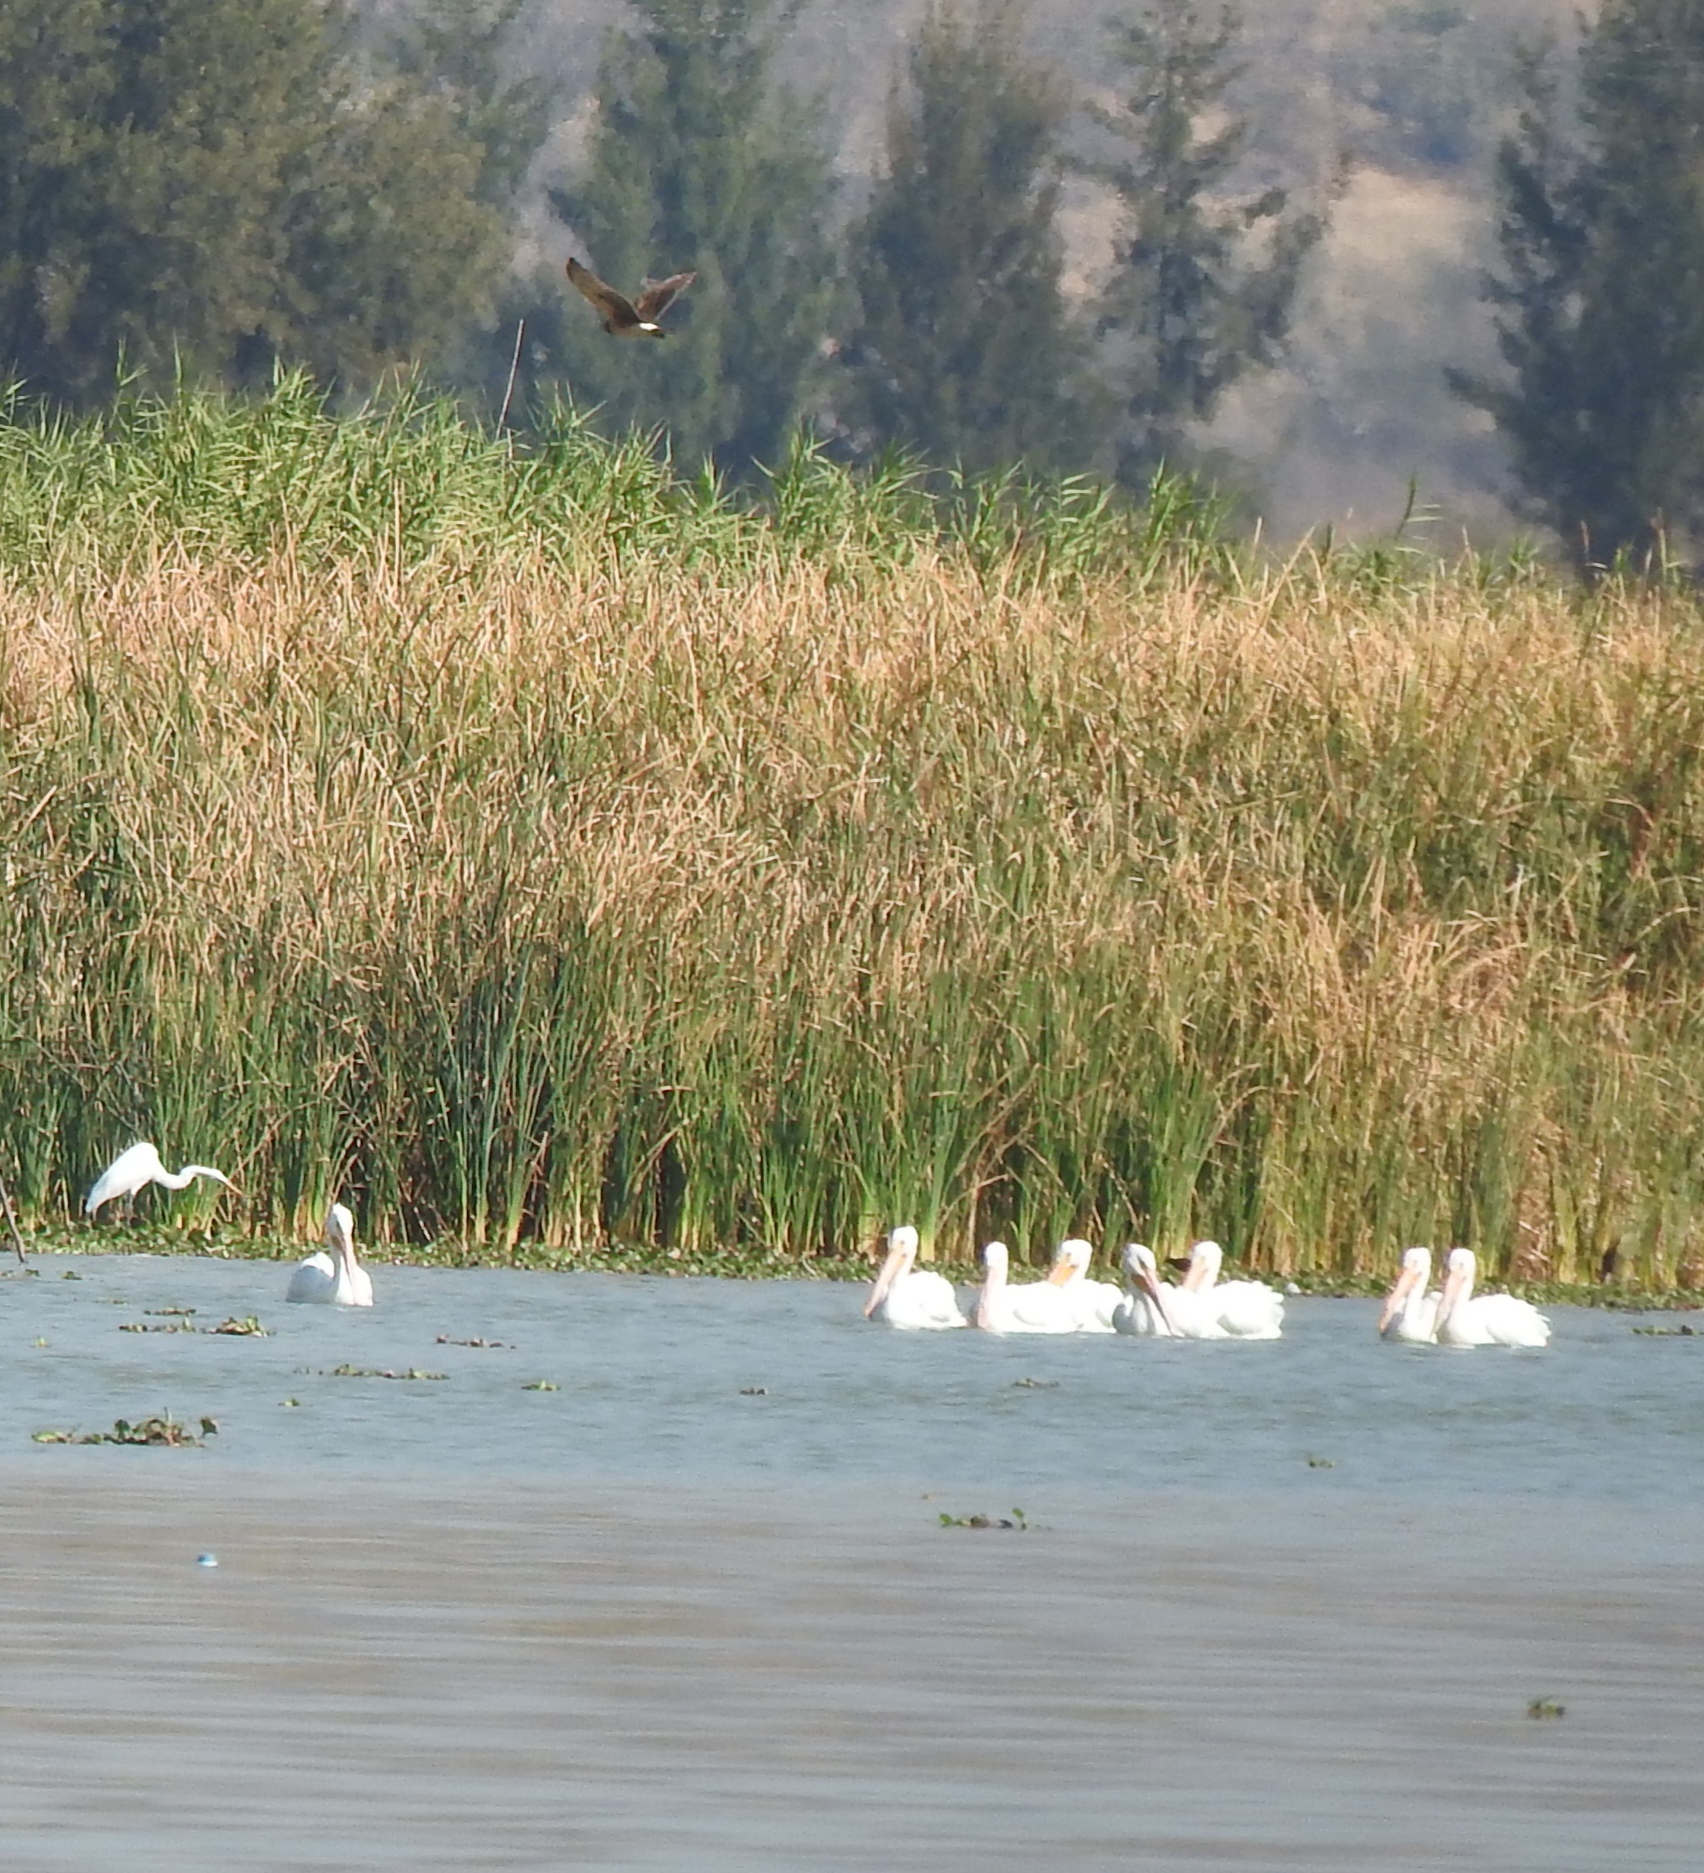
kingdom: Animalia
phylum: Chordata
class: Aves
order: Pelecaniformes
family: Pelecanidae
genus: Pelecanus
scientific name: Pelecanus erythrorhynchos
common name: American white pelican
